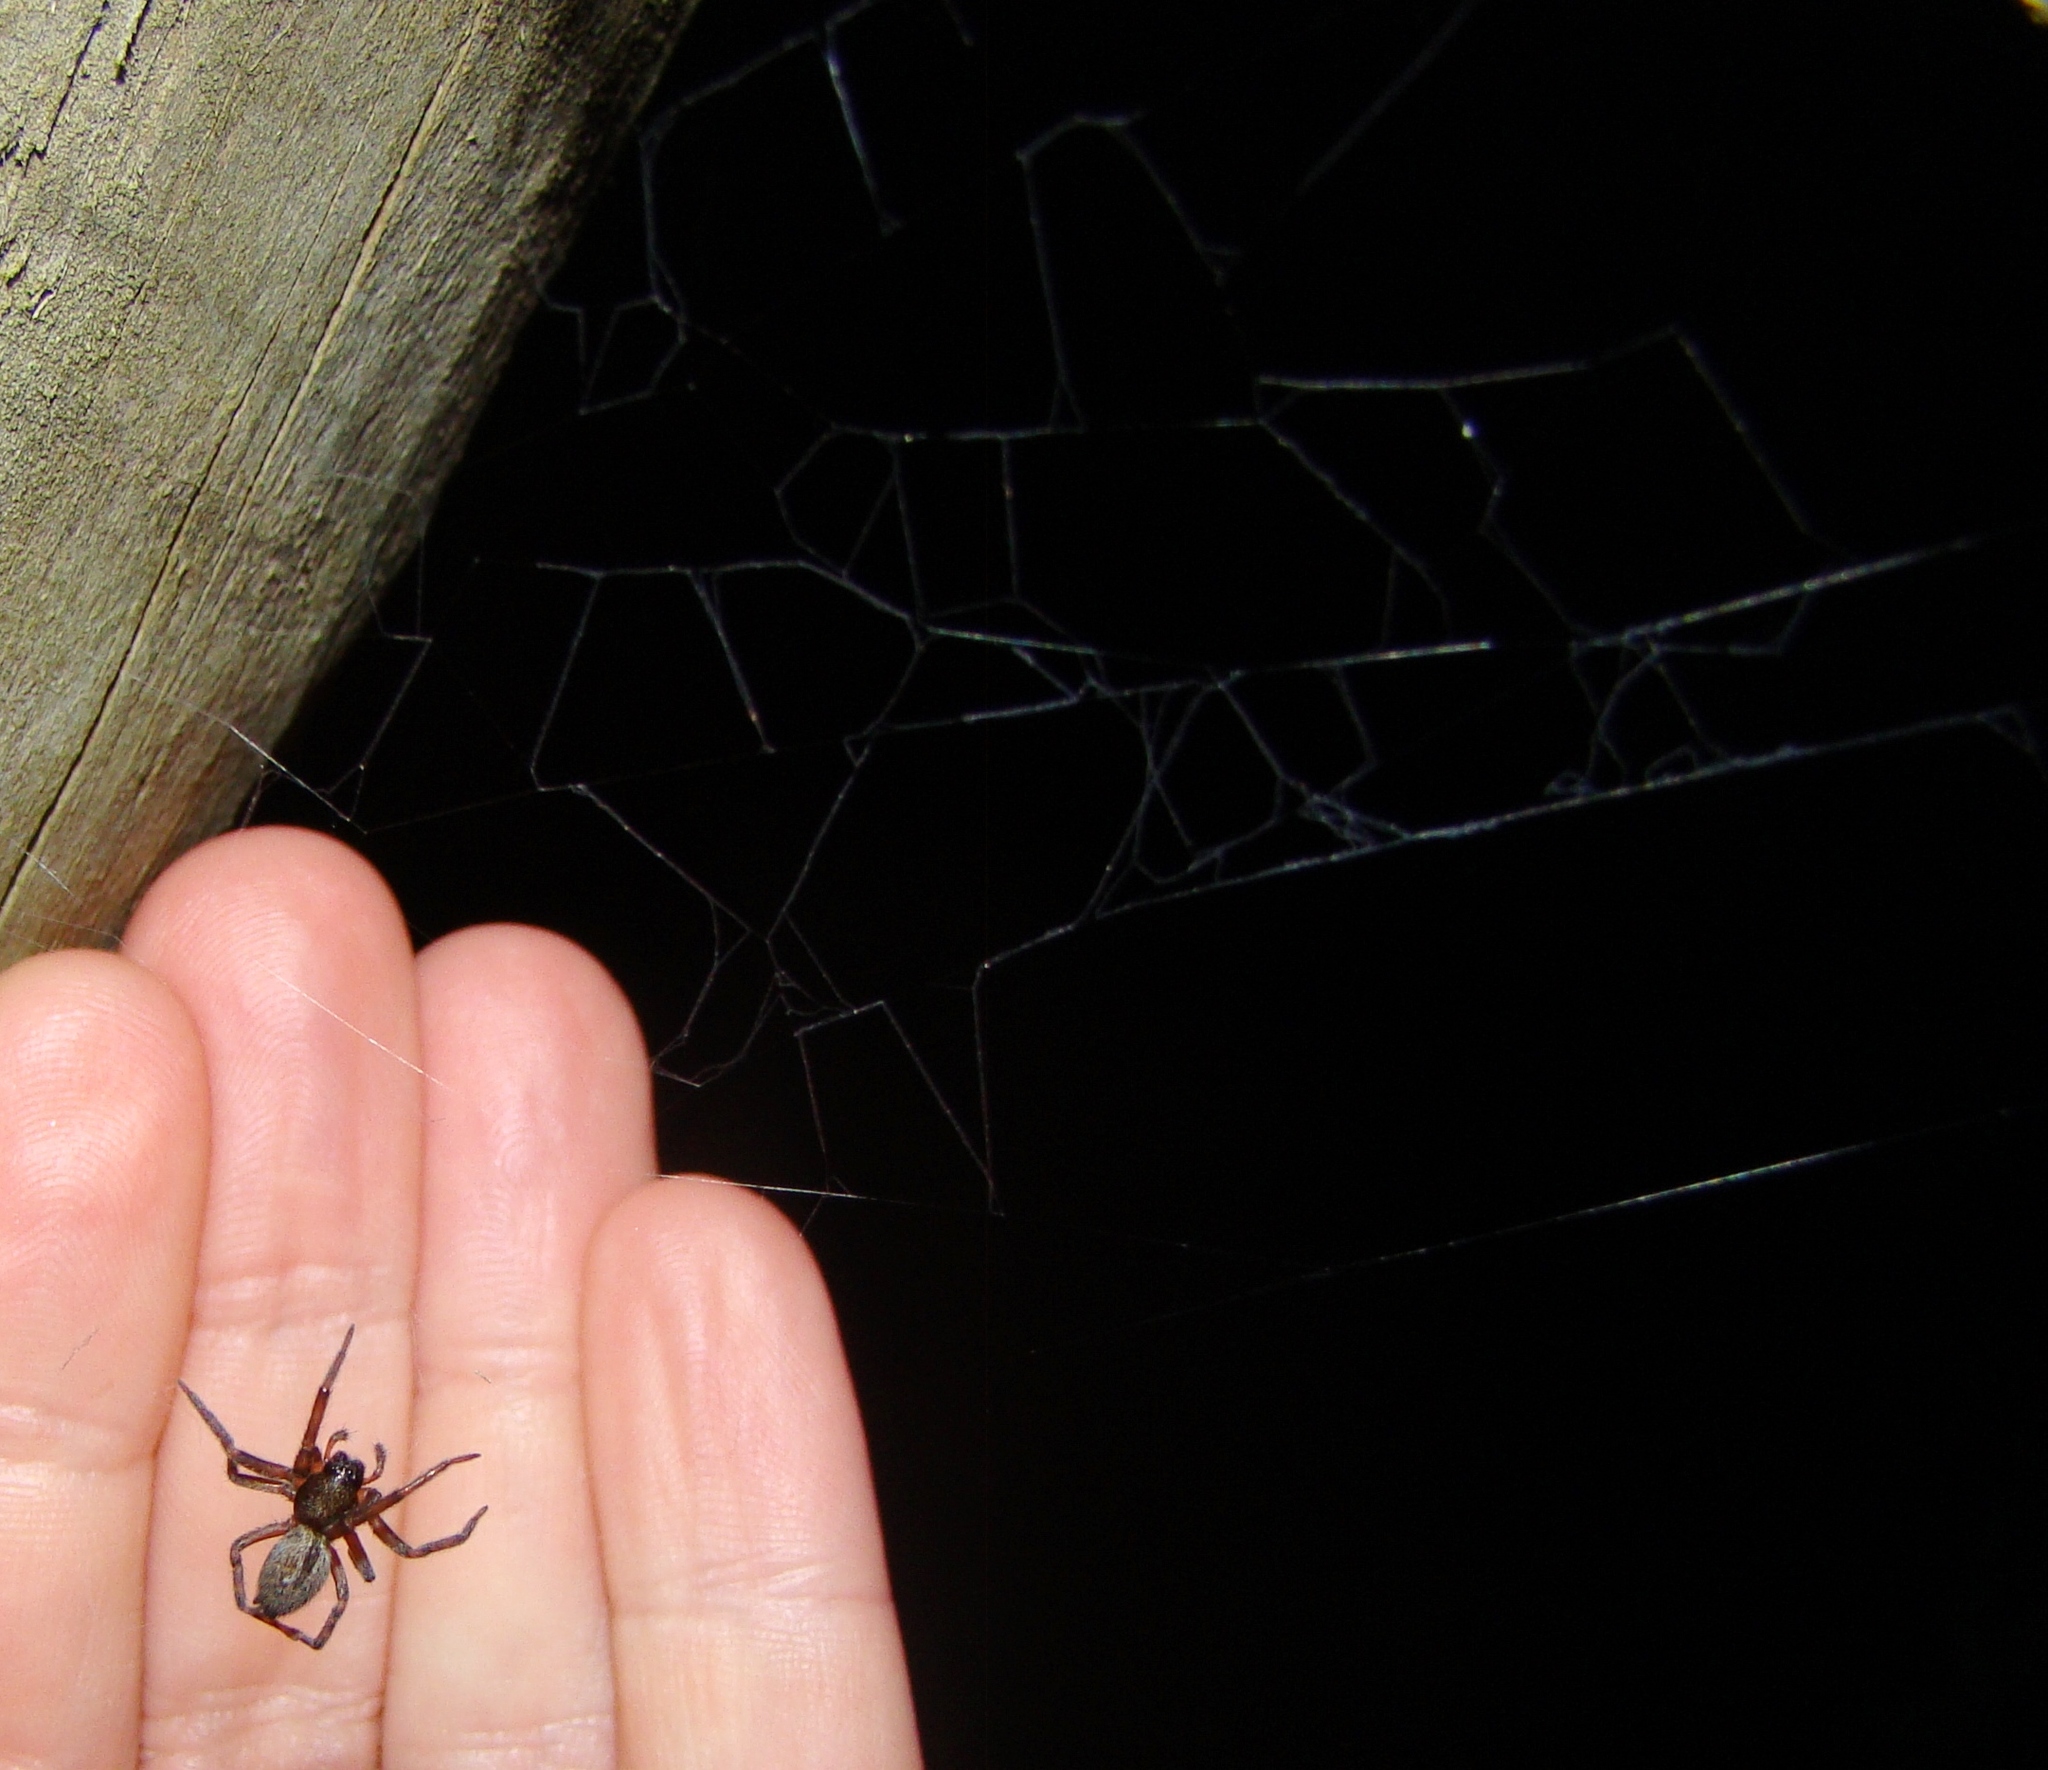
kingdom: Animalia
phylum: Arthropoda
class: Arachnida
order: Araneae
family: Desidae
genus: Badumna
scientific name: Badumna longinqua
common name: Gray house spider
